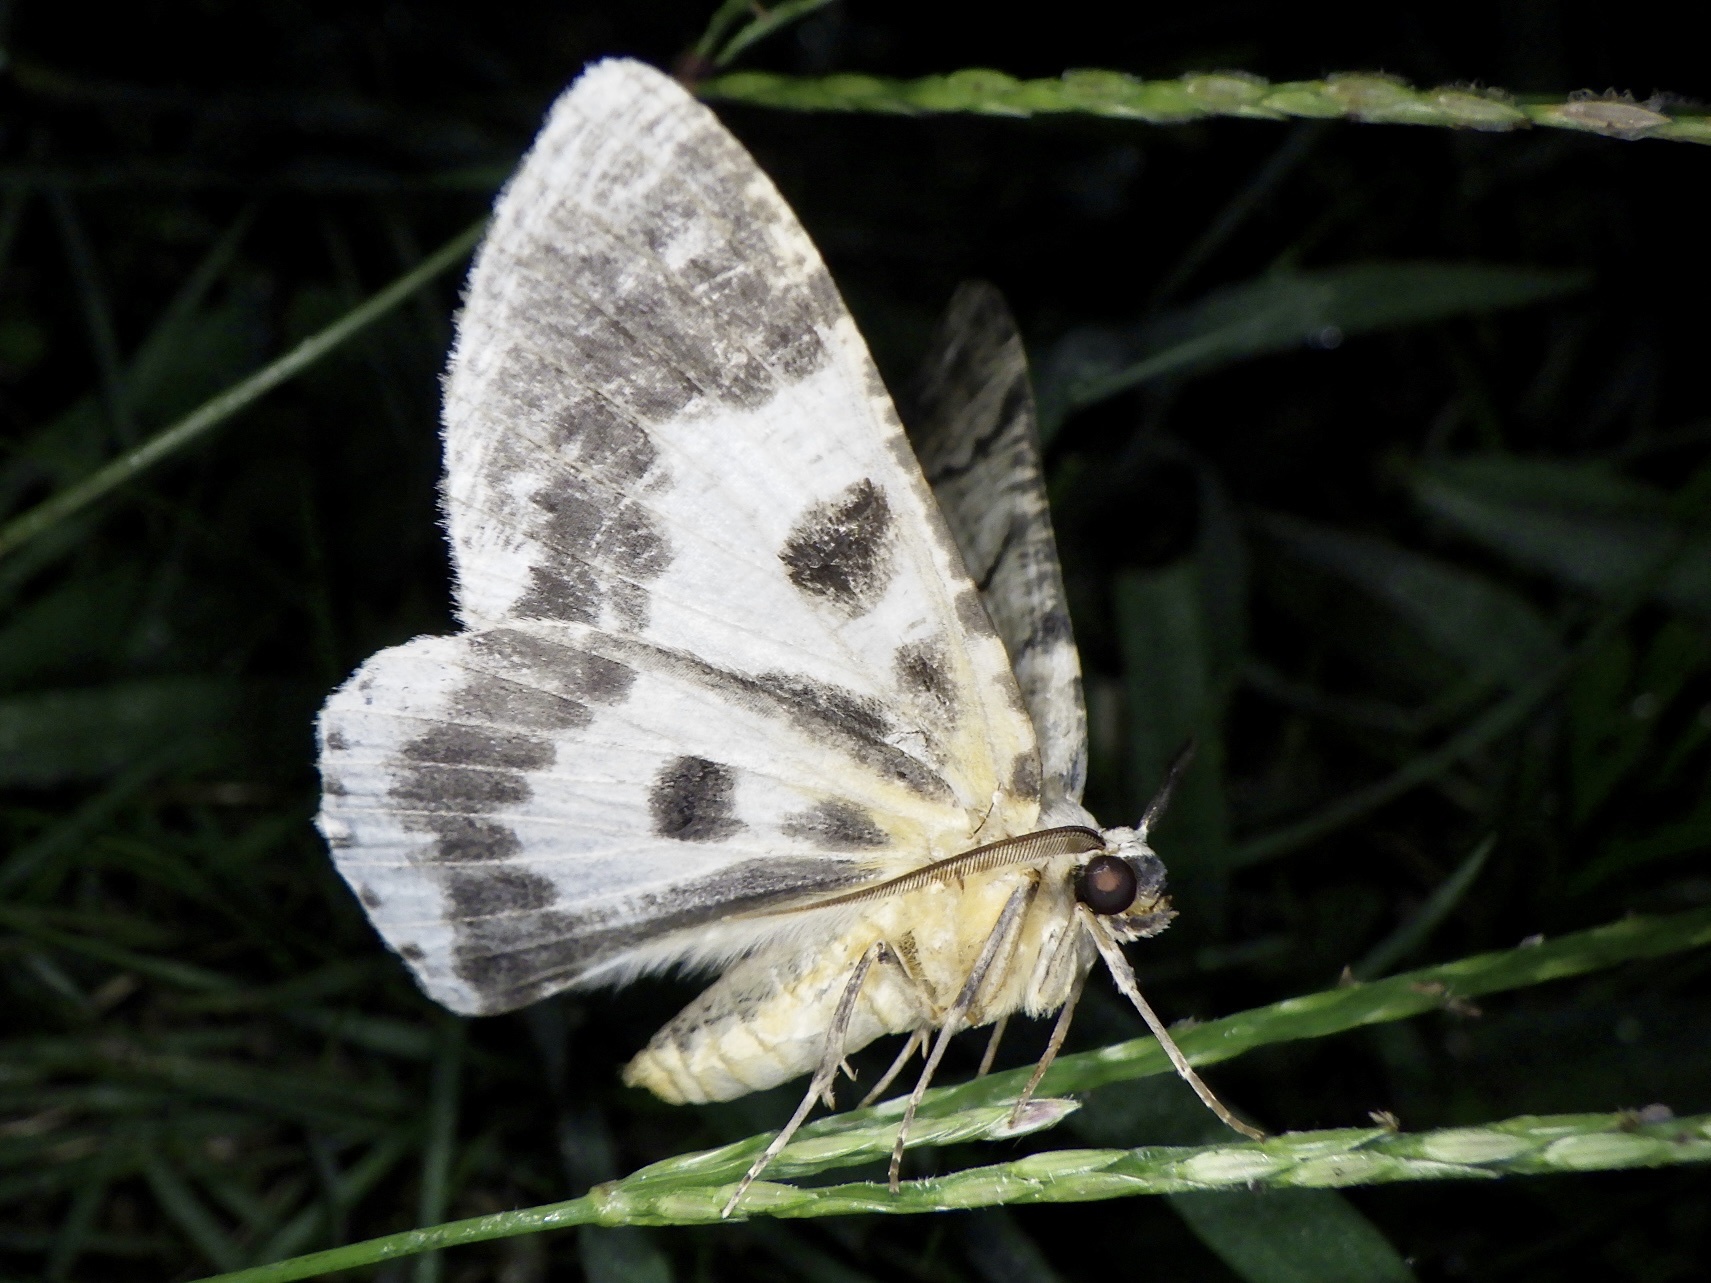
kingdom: Animalia
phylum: Arthropoda
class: Insecta
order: Lepidoptera
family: Geometridae
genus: Pachista
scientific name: Pachista superans
